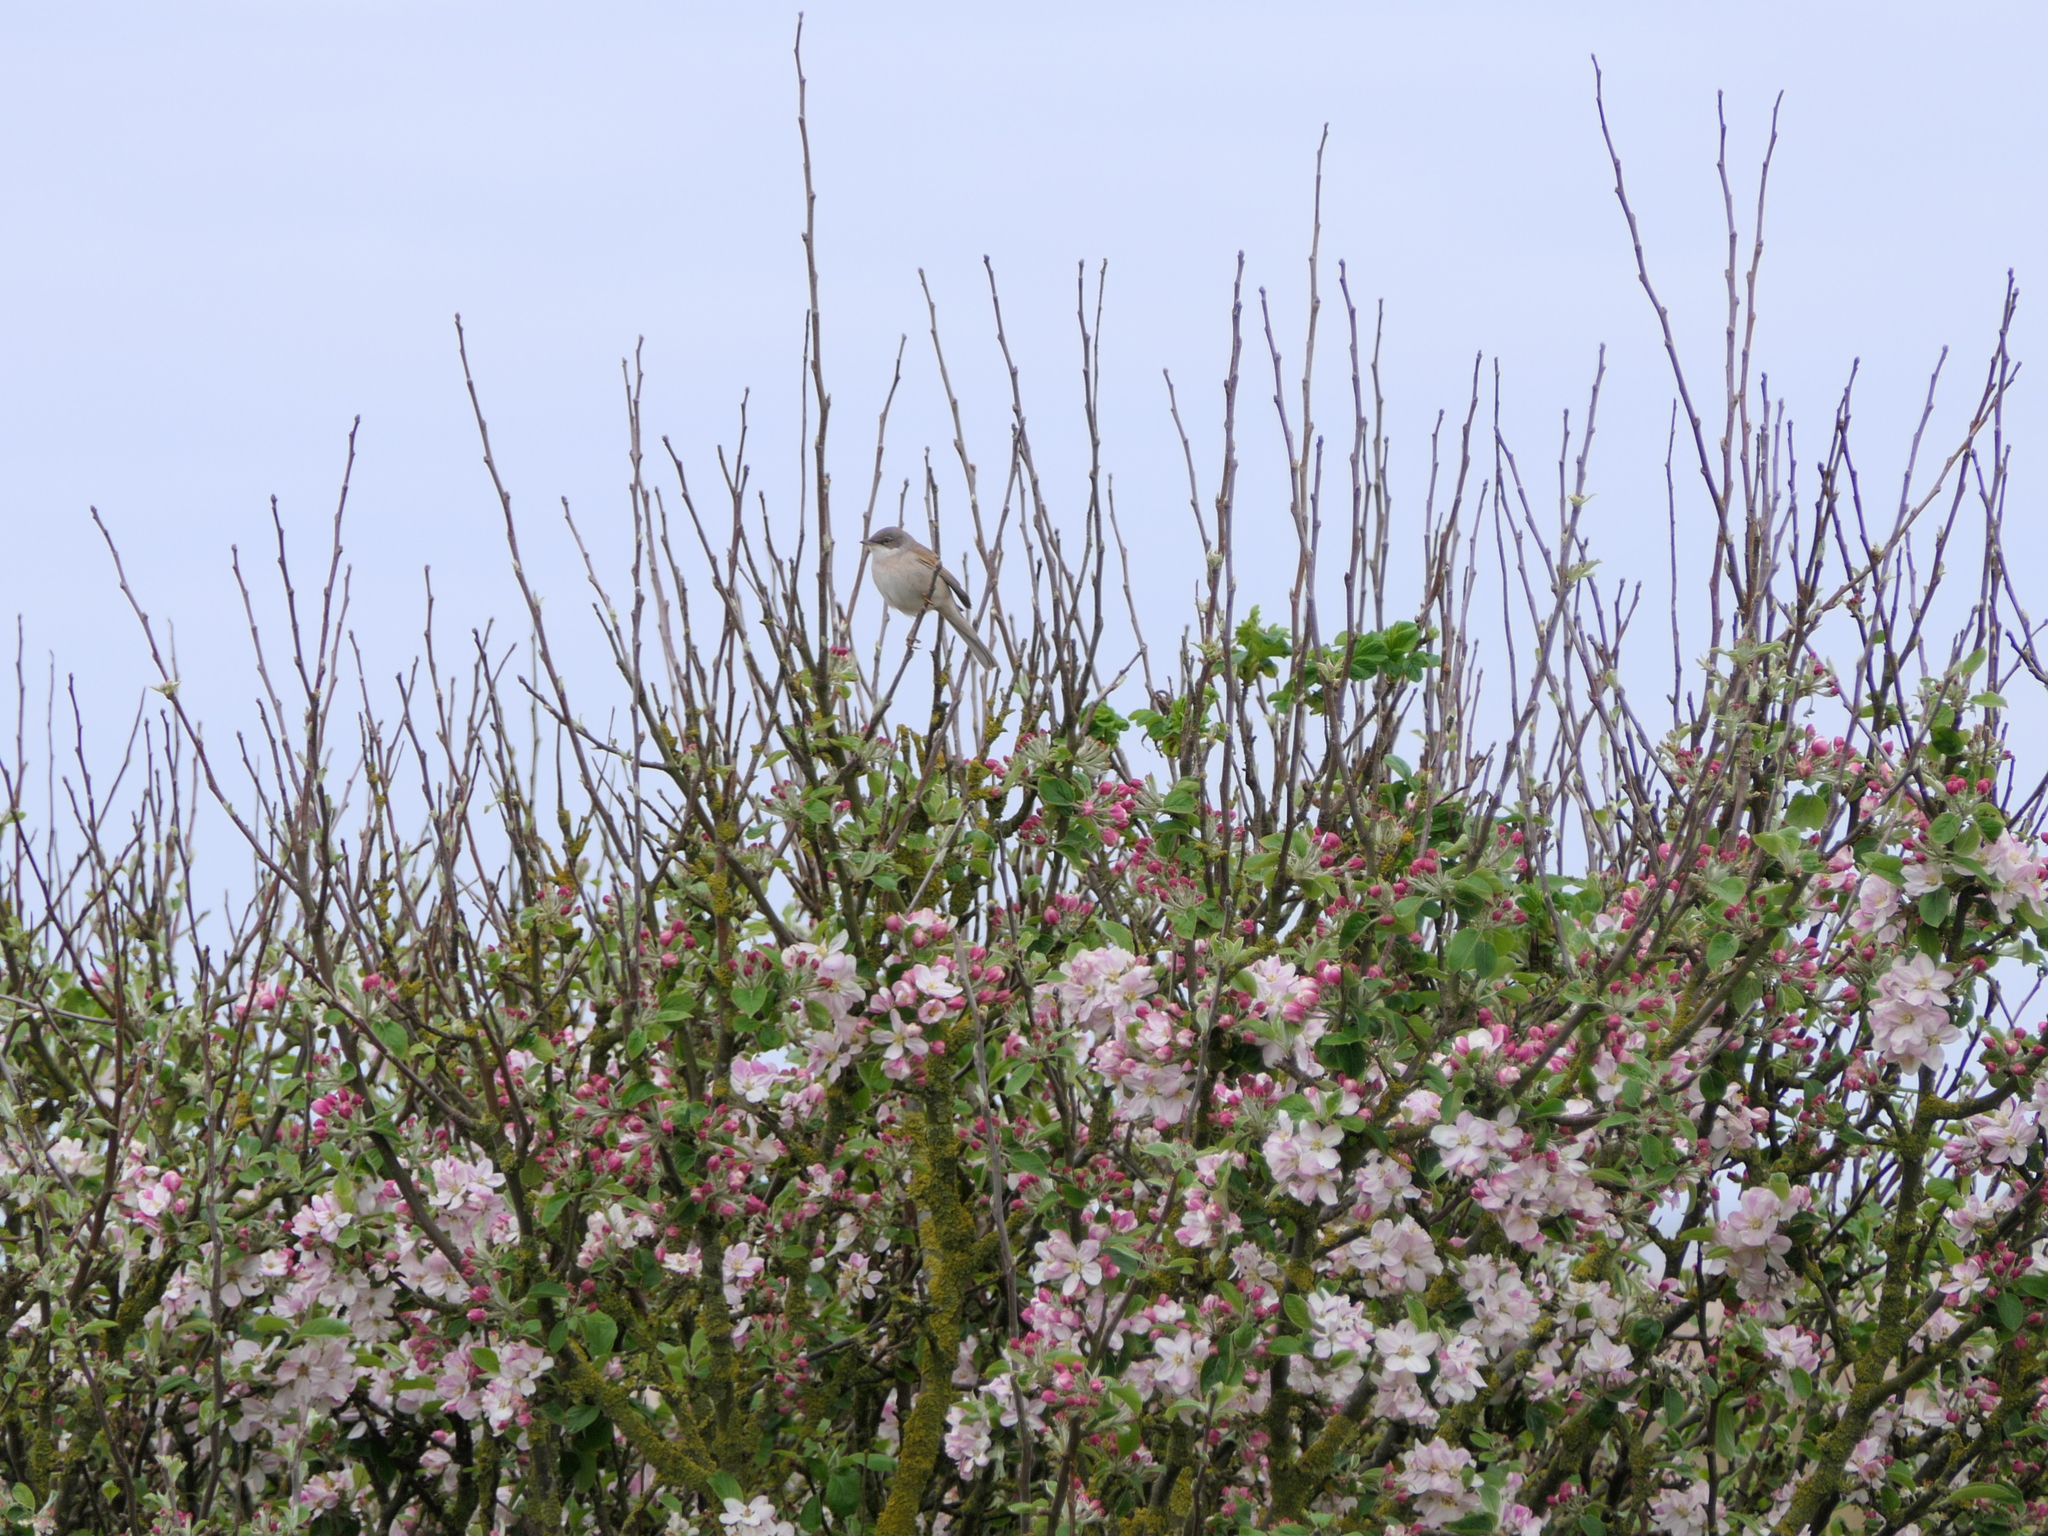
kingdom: Animalia
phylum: Chordata
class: Aves
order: Passeriformes
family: Sylviidae
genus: Sylvia
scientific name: Sylvia communis
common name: Common whitethroat
